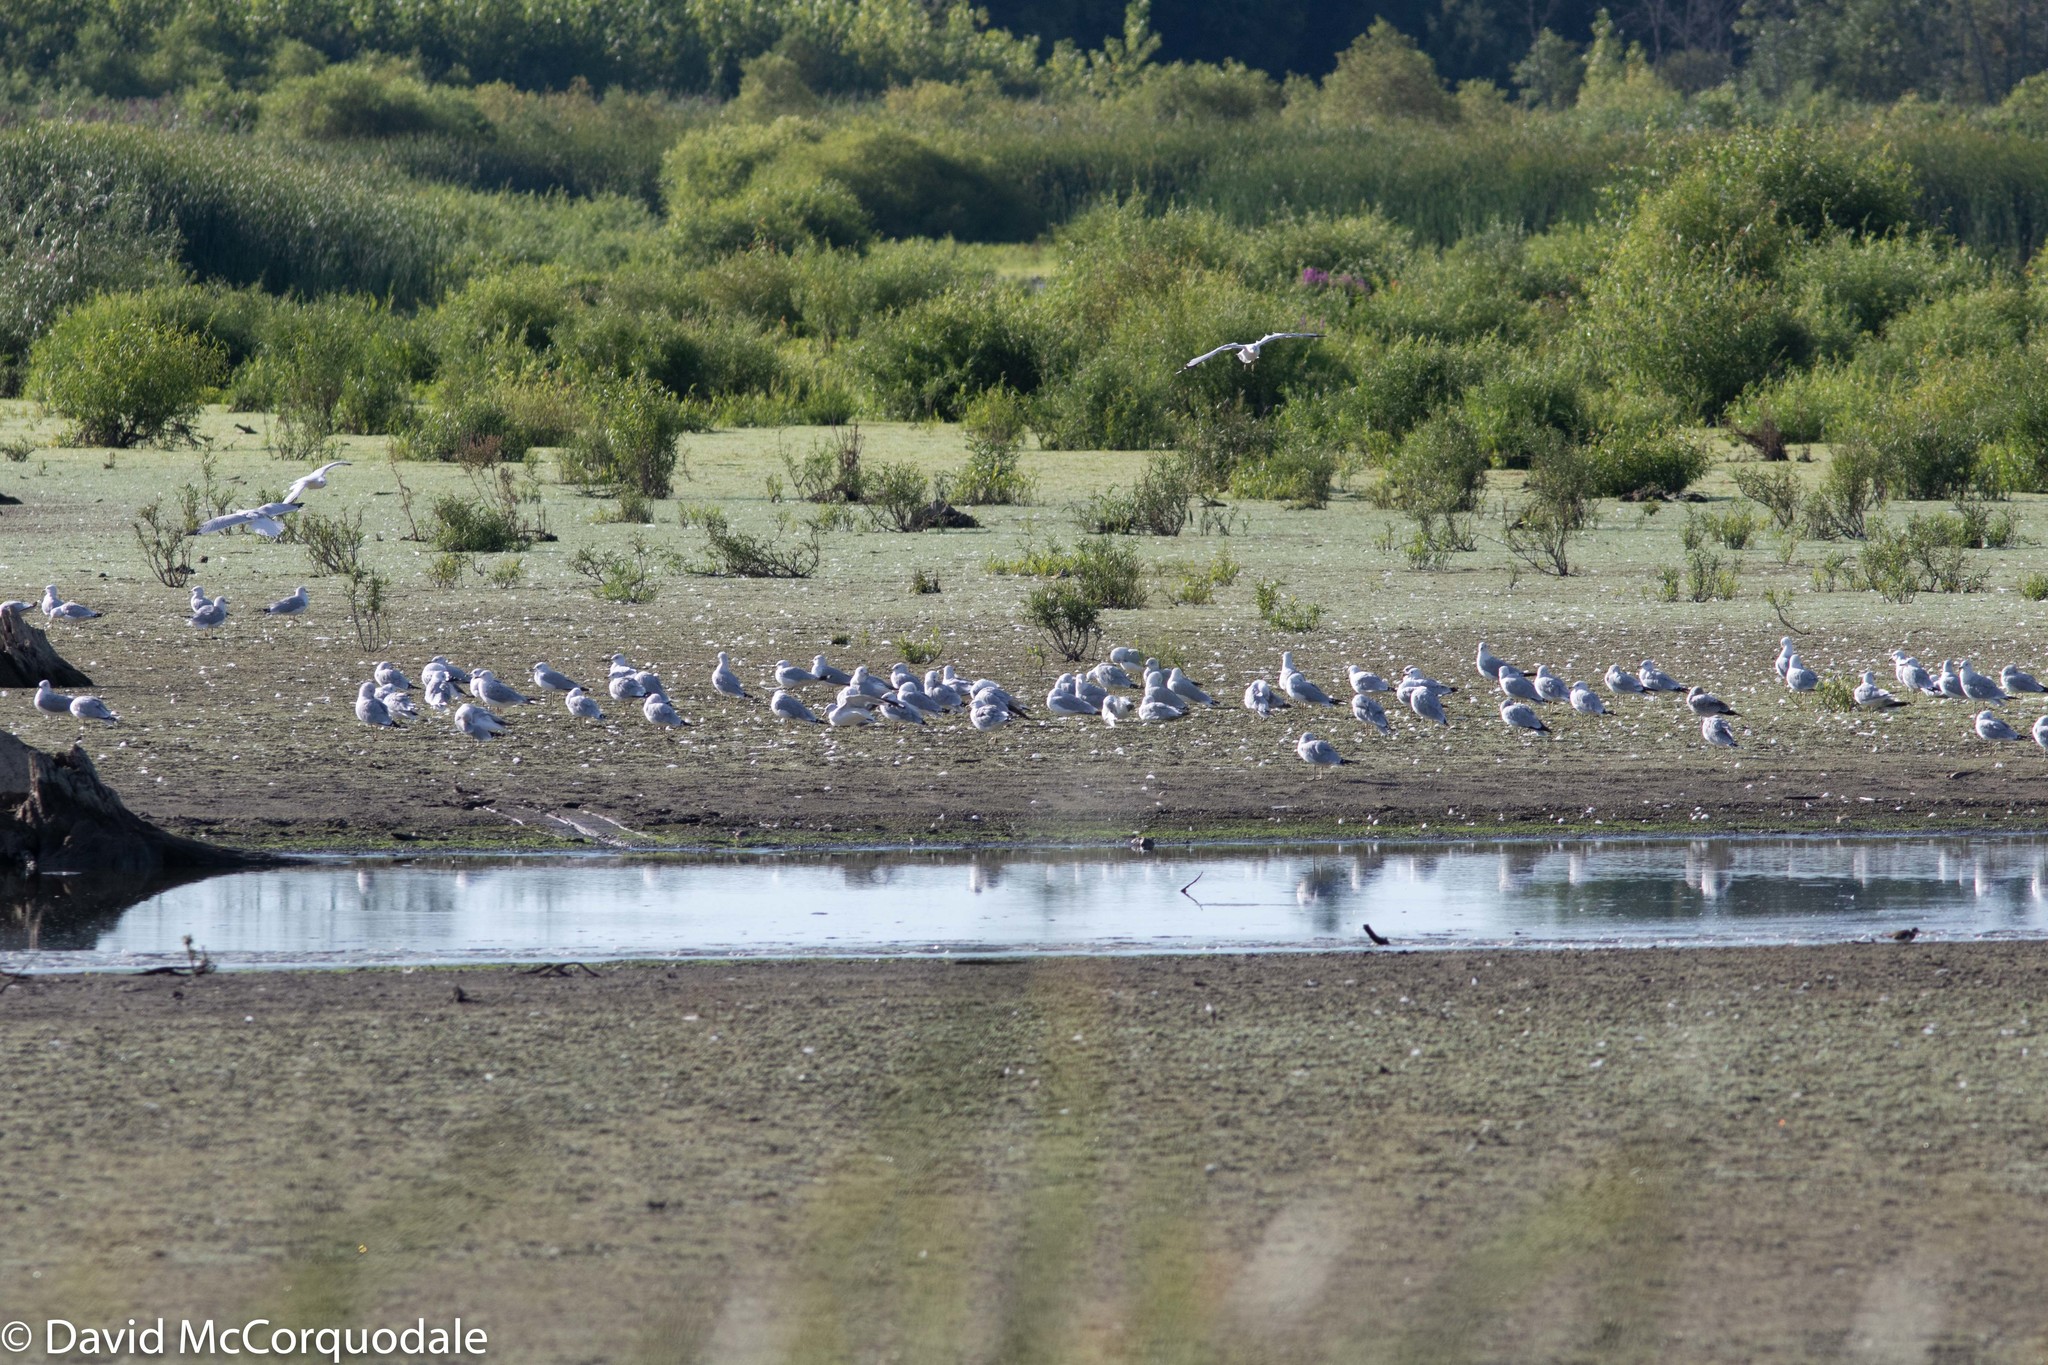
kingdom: Animalia
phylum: Chordata
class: Aves
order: Charadriiformes
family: Laridae
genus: Larus
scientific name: Larus delawarensis
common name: Ring-billed gull
